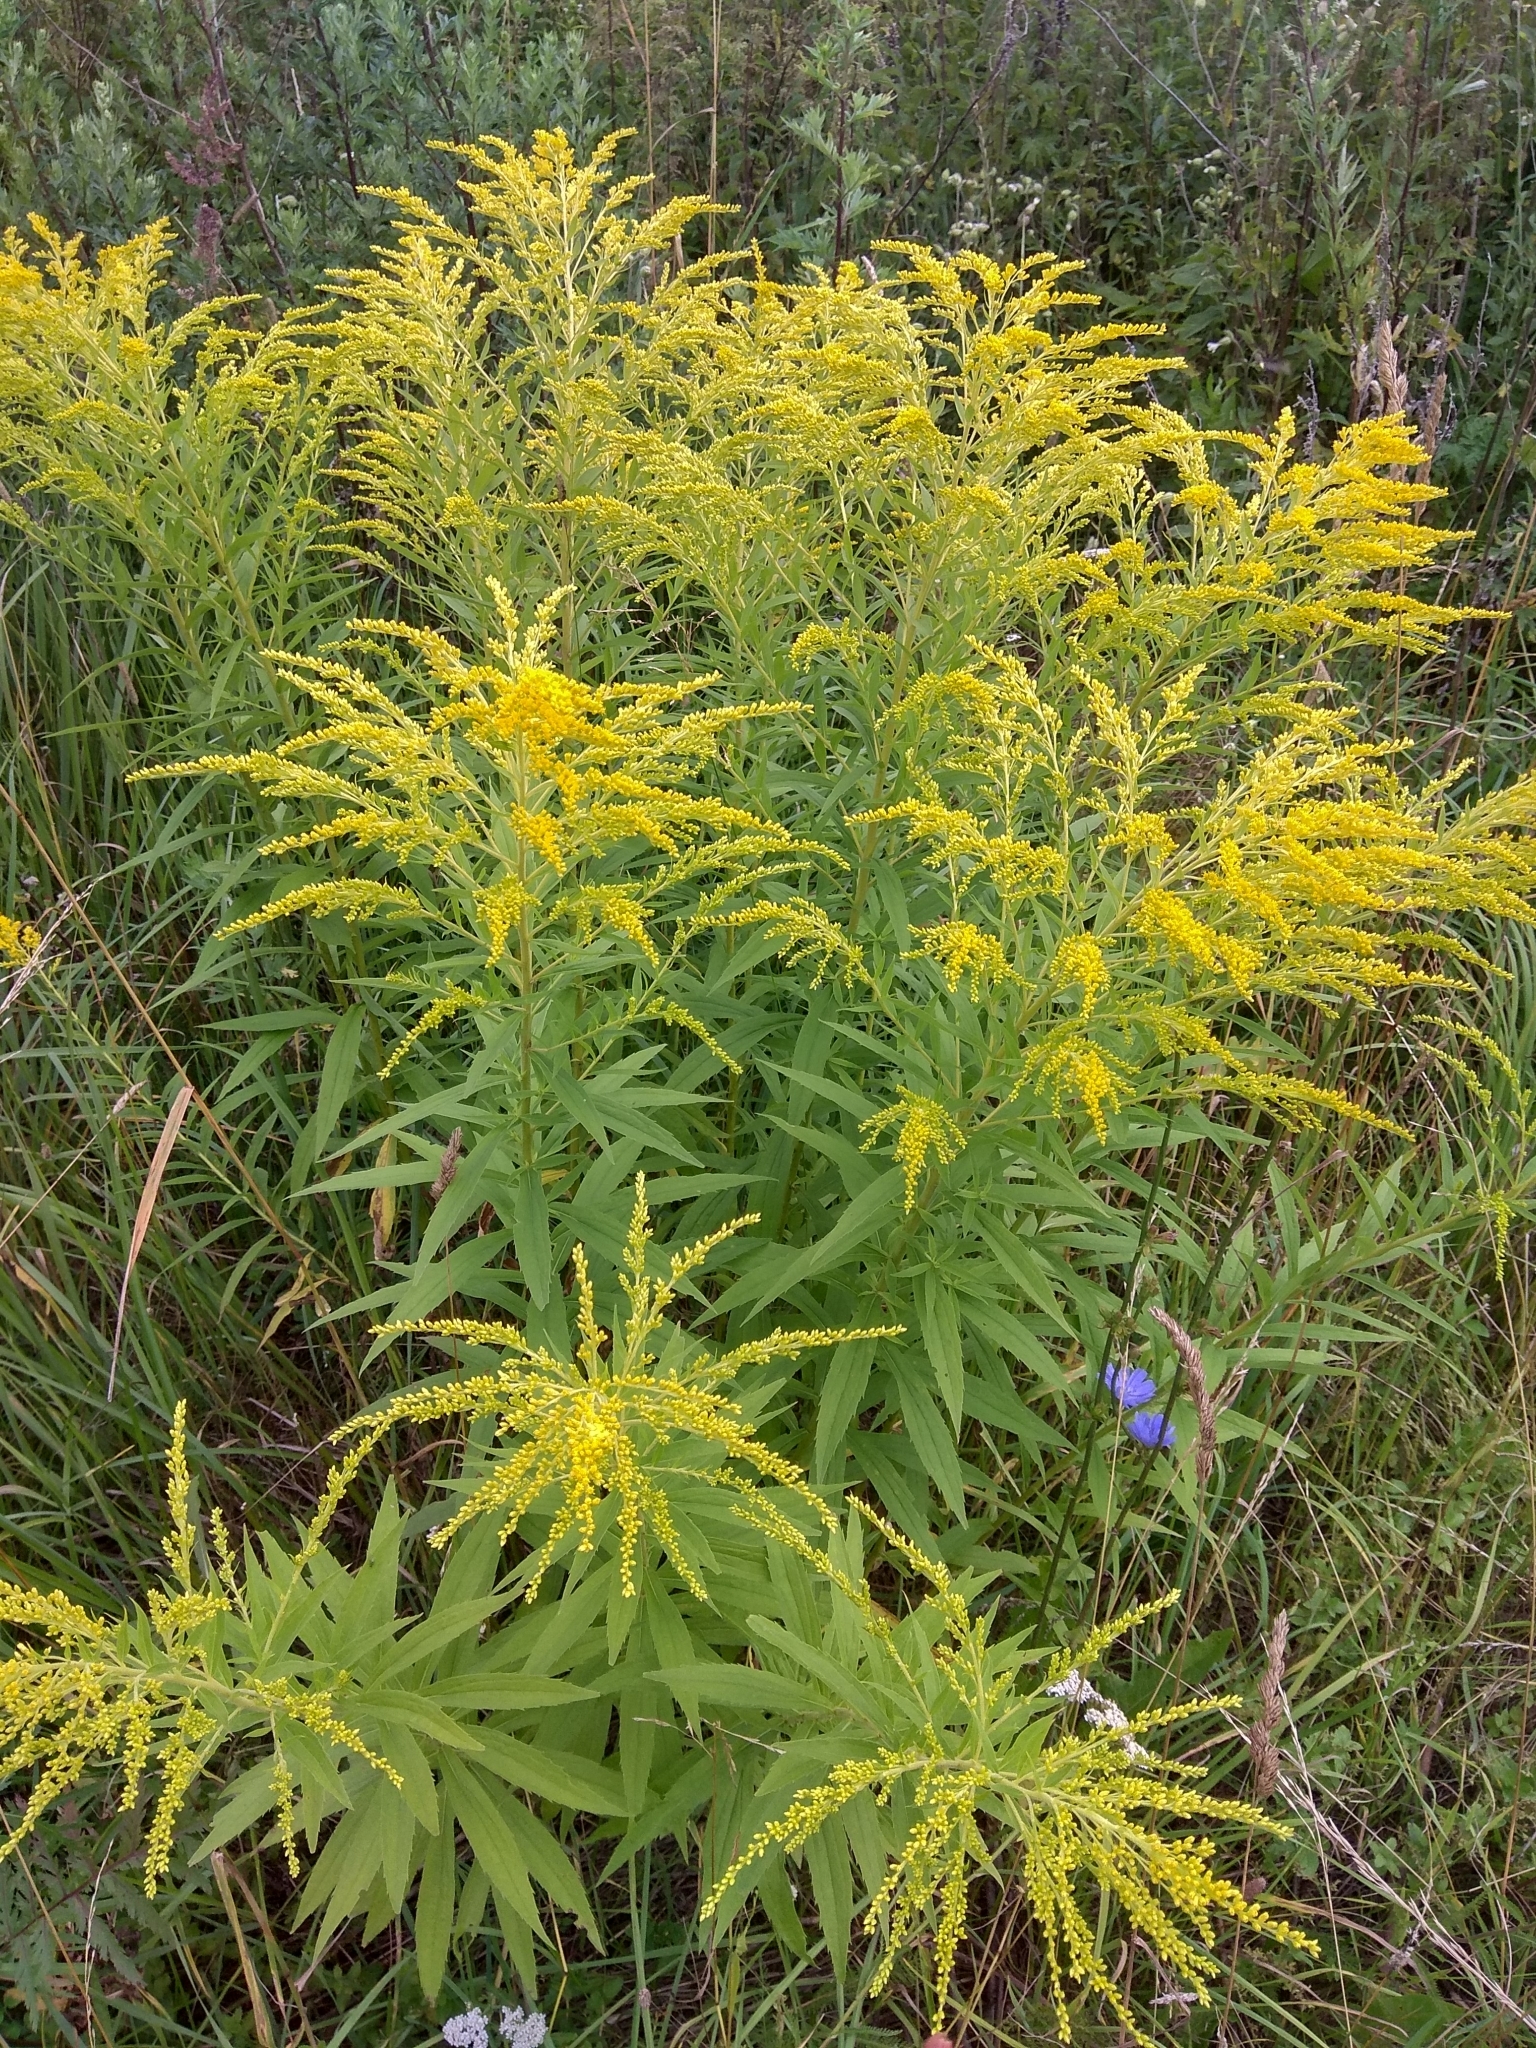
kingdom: Plantae
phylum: Tracheophyta
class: Magnoliopsida
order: Asterales
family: Asteraceae
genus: Solidago
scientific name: Solidago canadensis
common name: Canada goldenrod
